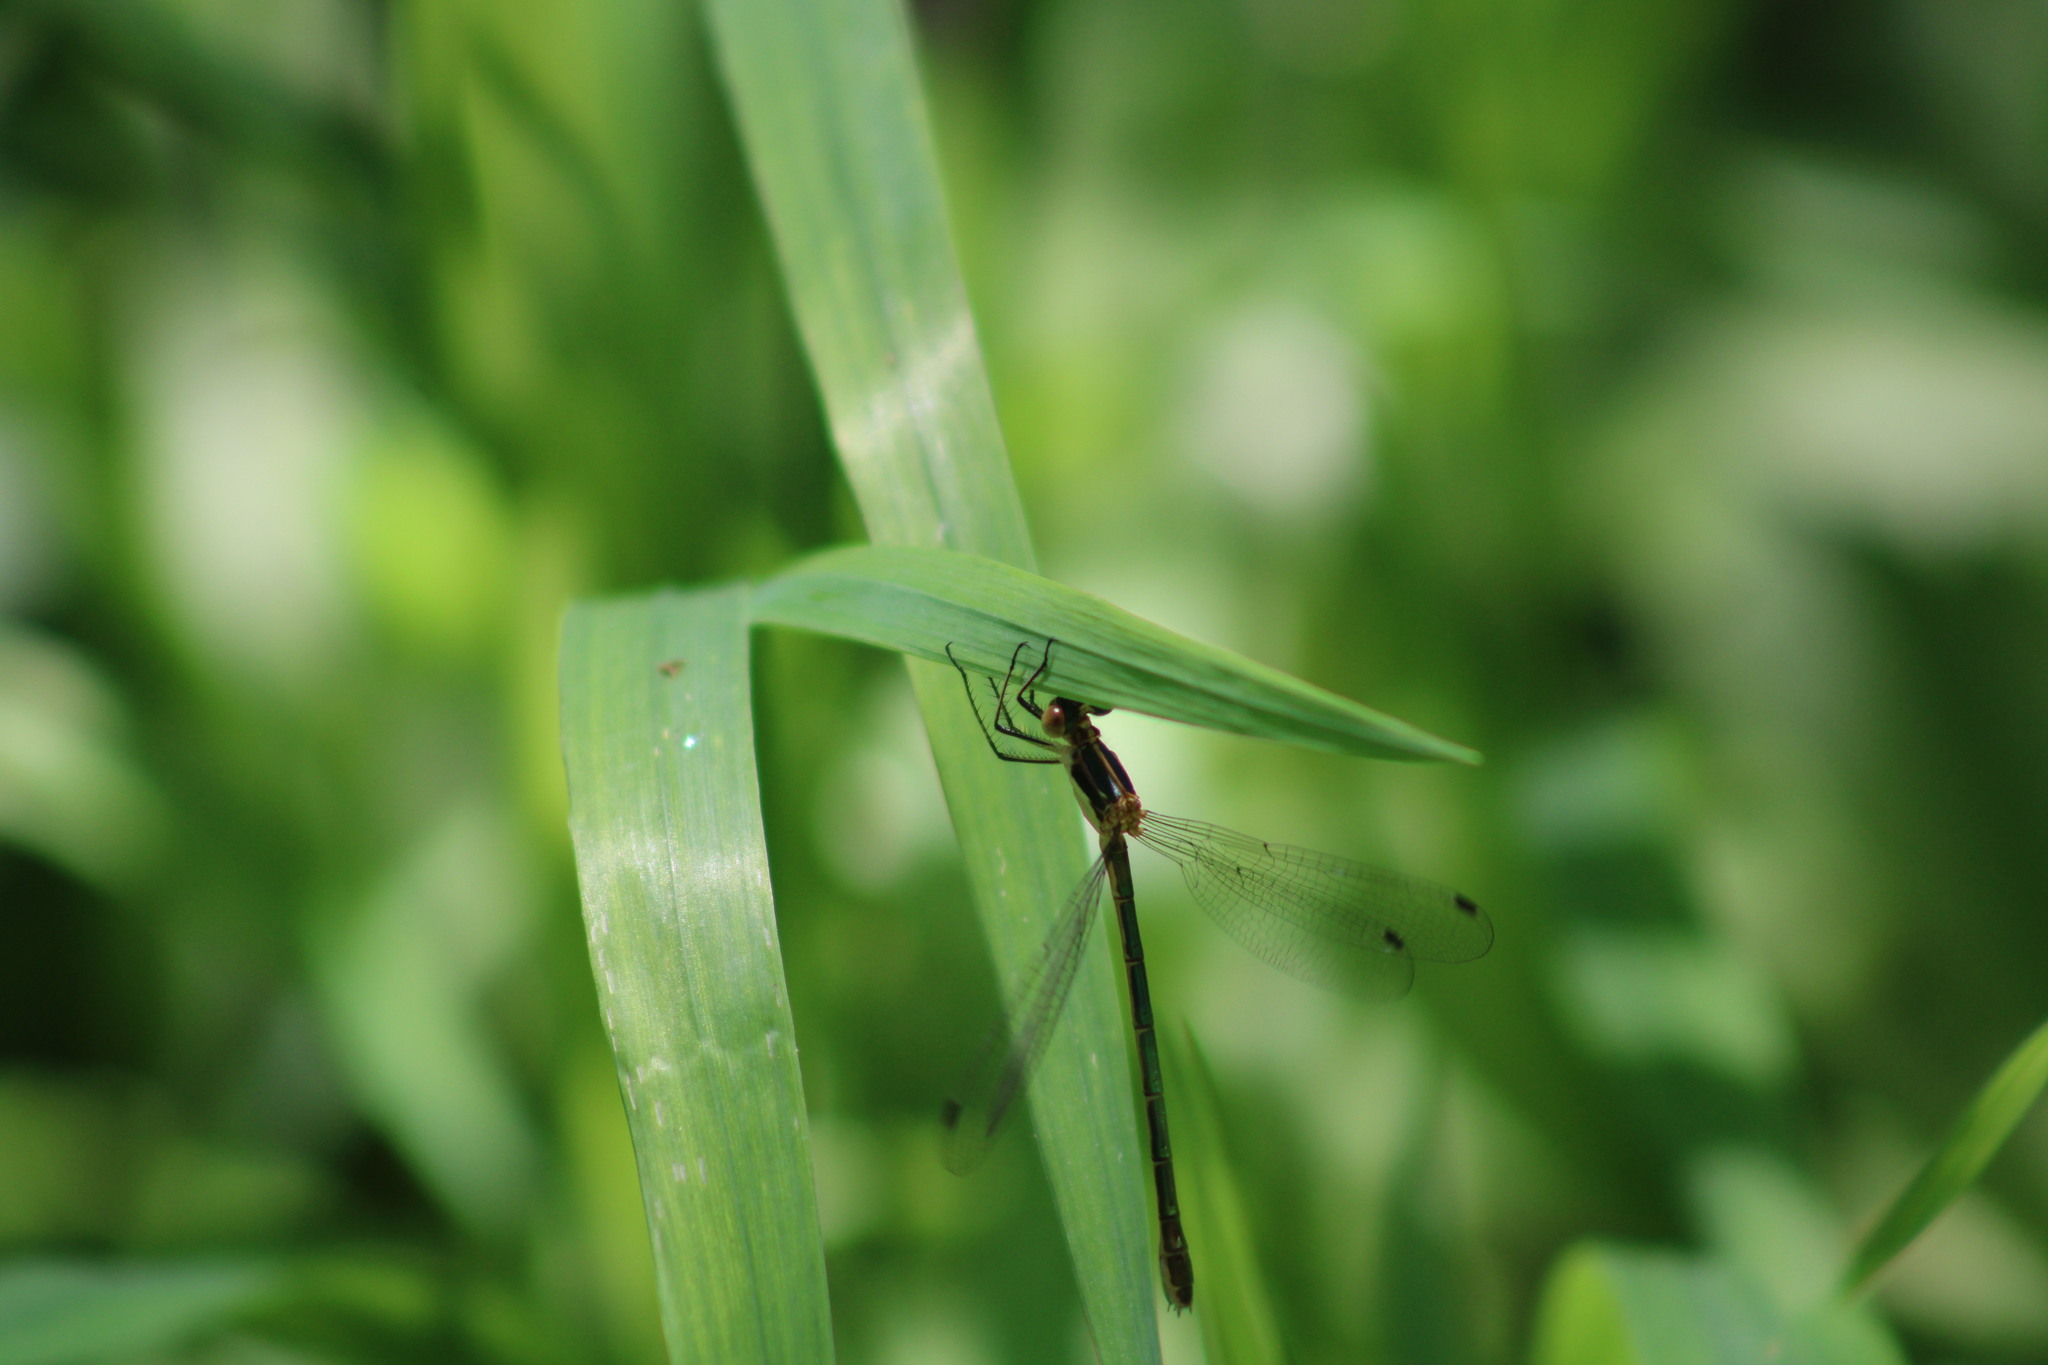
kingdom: Animalia
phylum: Arthropoda
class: Insecta
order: Odonata
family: Lestidae
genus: Lestes
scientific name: Lestes dryas
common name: Scarce emerald damselfly
